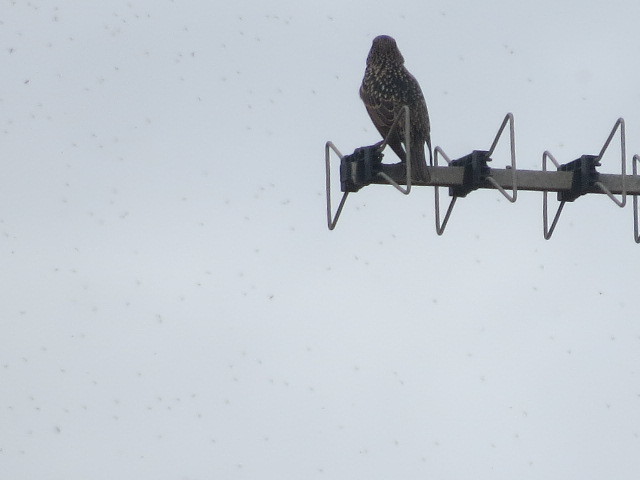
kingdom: Animalia
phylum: Chordata
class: Aves
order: Passeriformes
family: Sturnidae
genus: Sturnus
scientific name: Sturnus vulgaris
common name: Common starling
